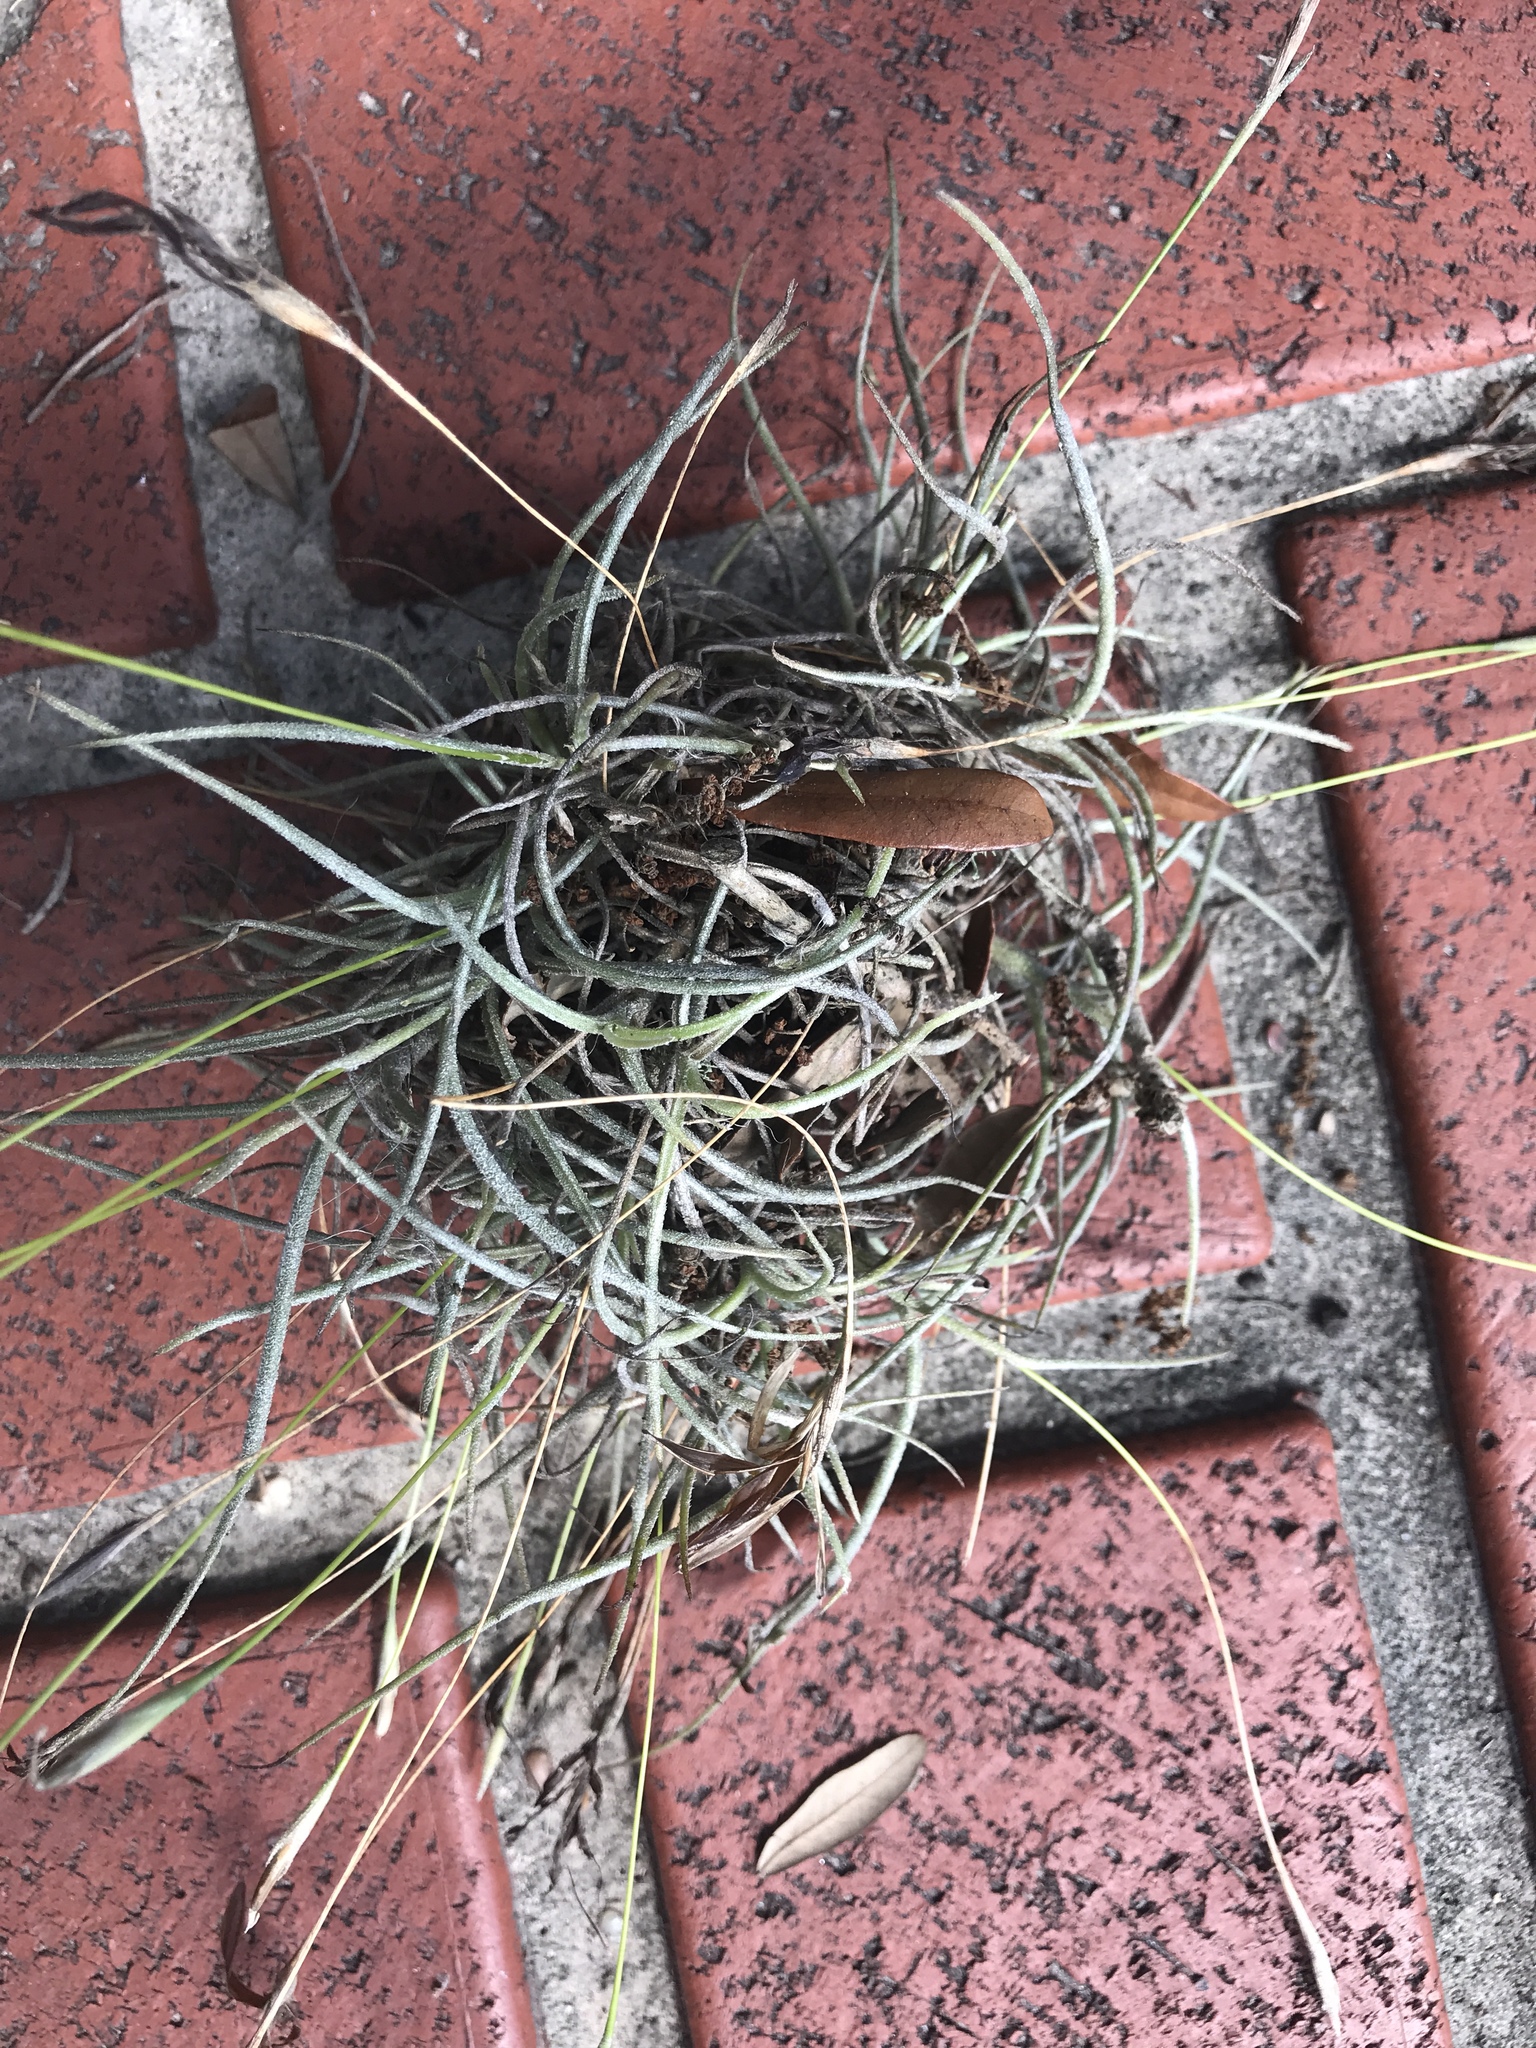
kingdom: Plantae
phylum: Tracheophyta
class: Liliopsida
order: Poales
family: Bromeliaceae
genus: Tillandsia
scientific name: Tillandsia recurvata
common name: Small ballmoss
